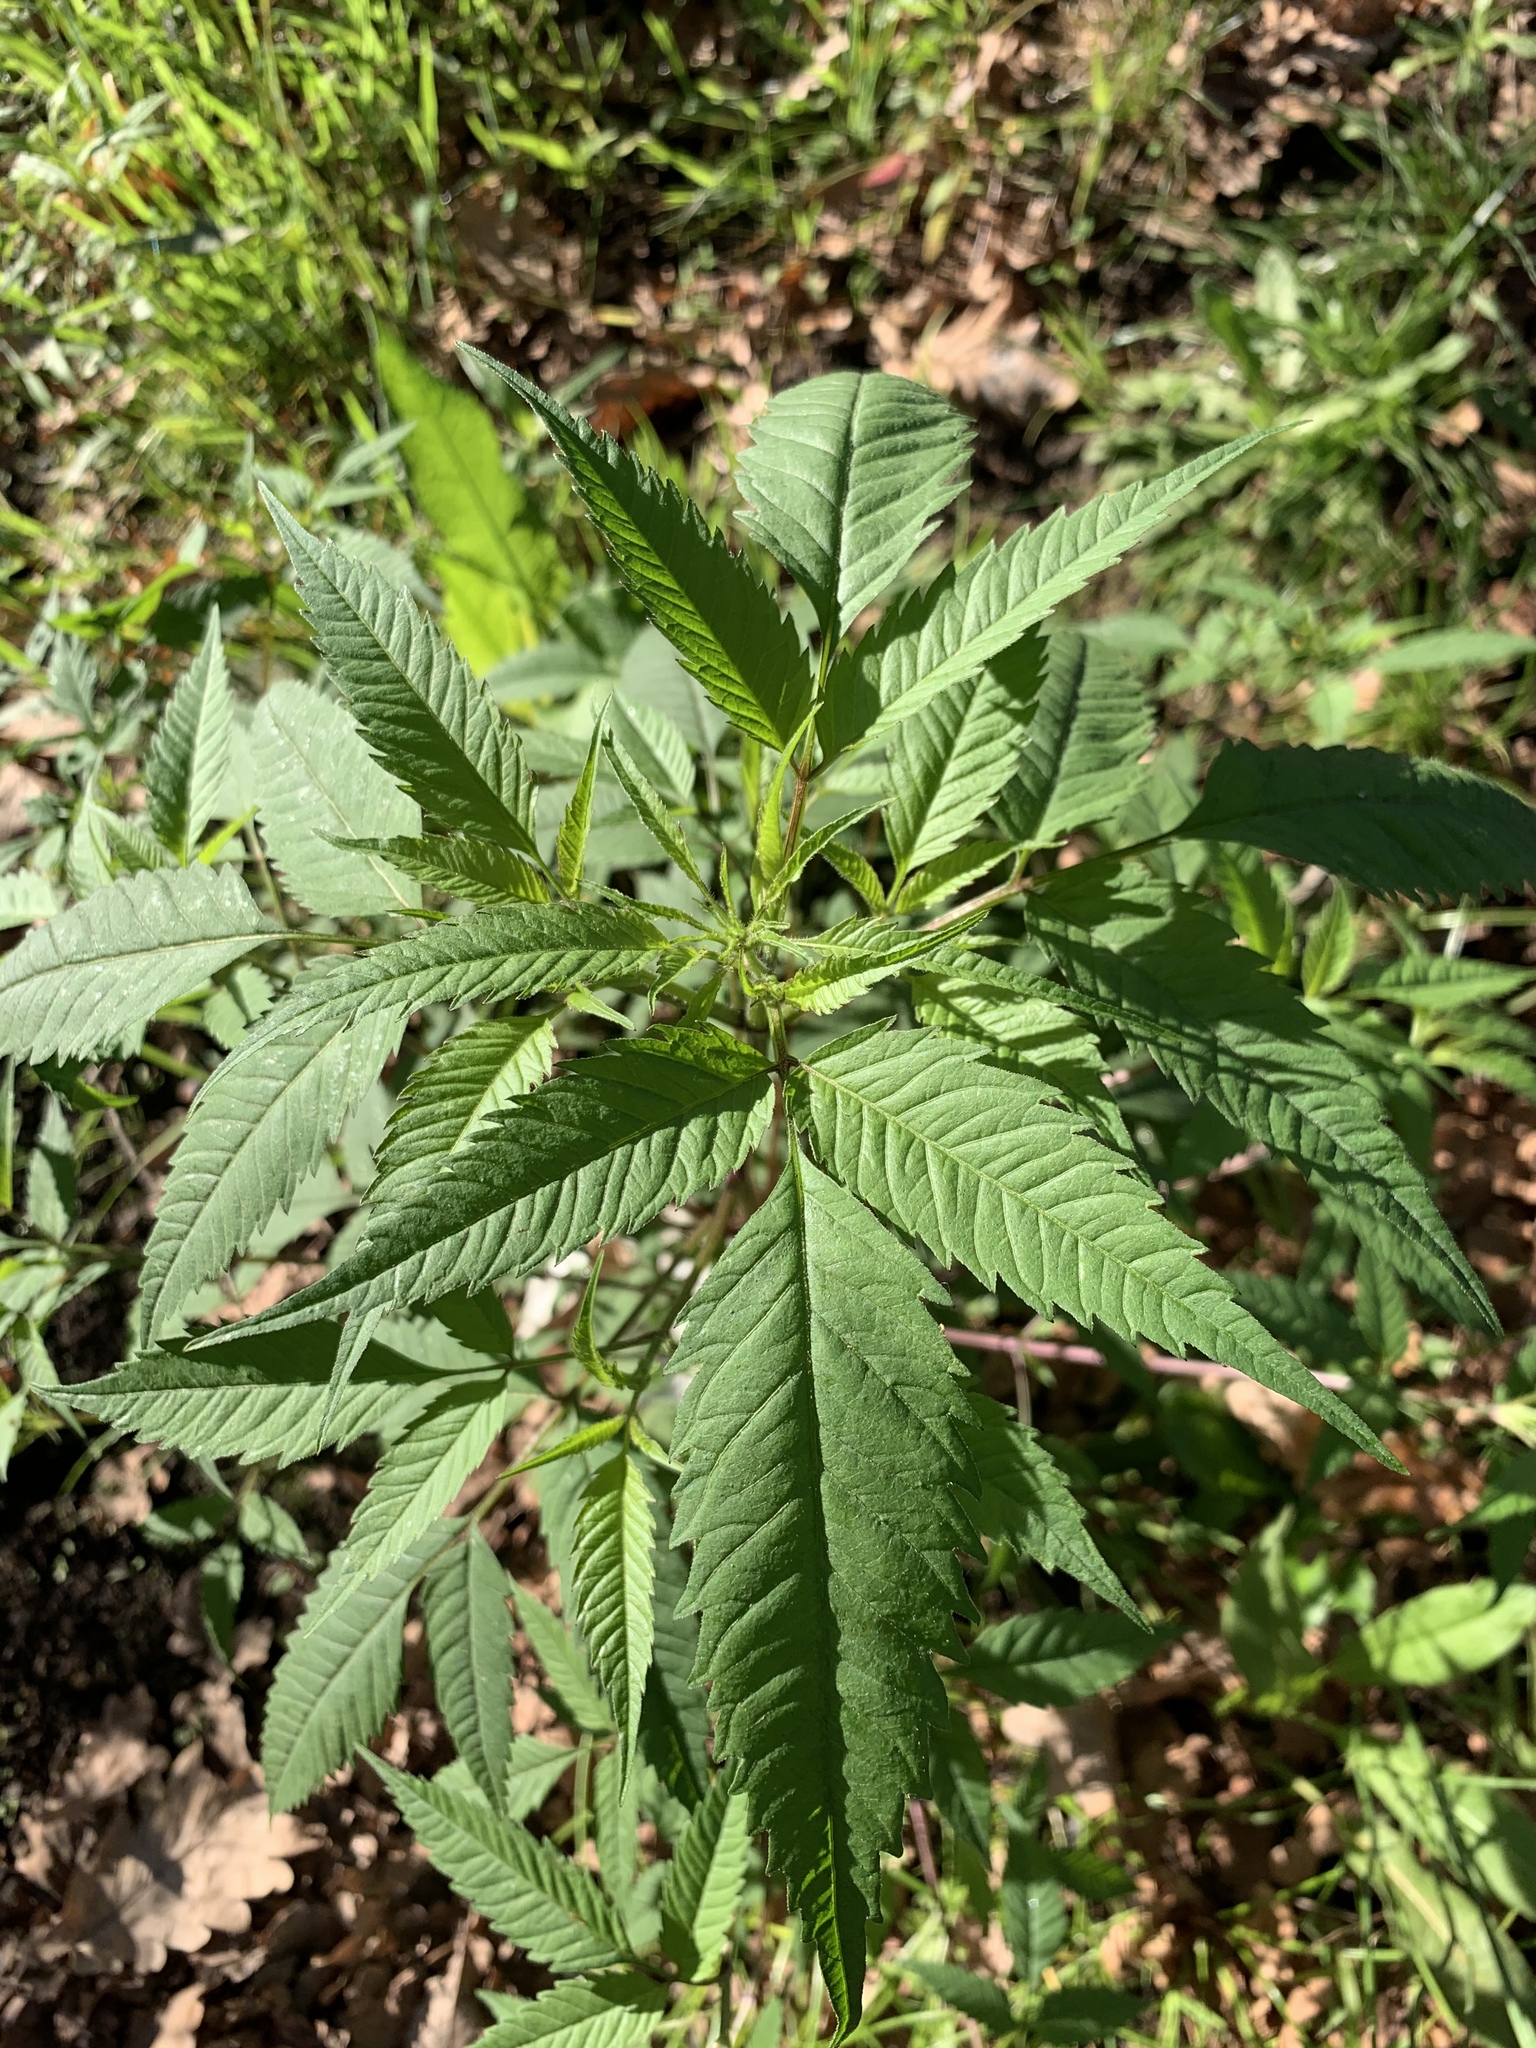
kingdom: Plantae
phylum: Tracheophyta
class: Magnoliopsida
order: Asterales
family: Asteraceae
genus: Bidens
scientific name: Bidens frondosa
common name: Beggarticks
